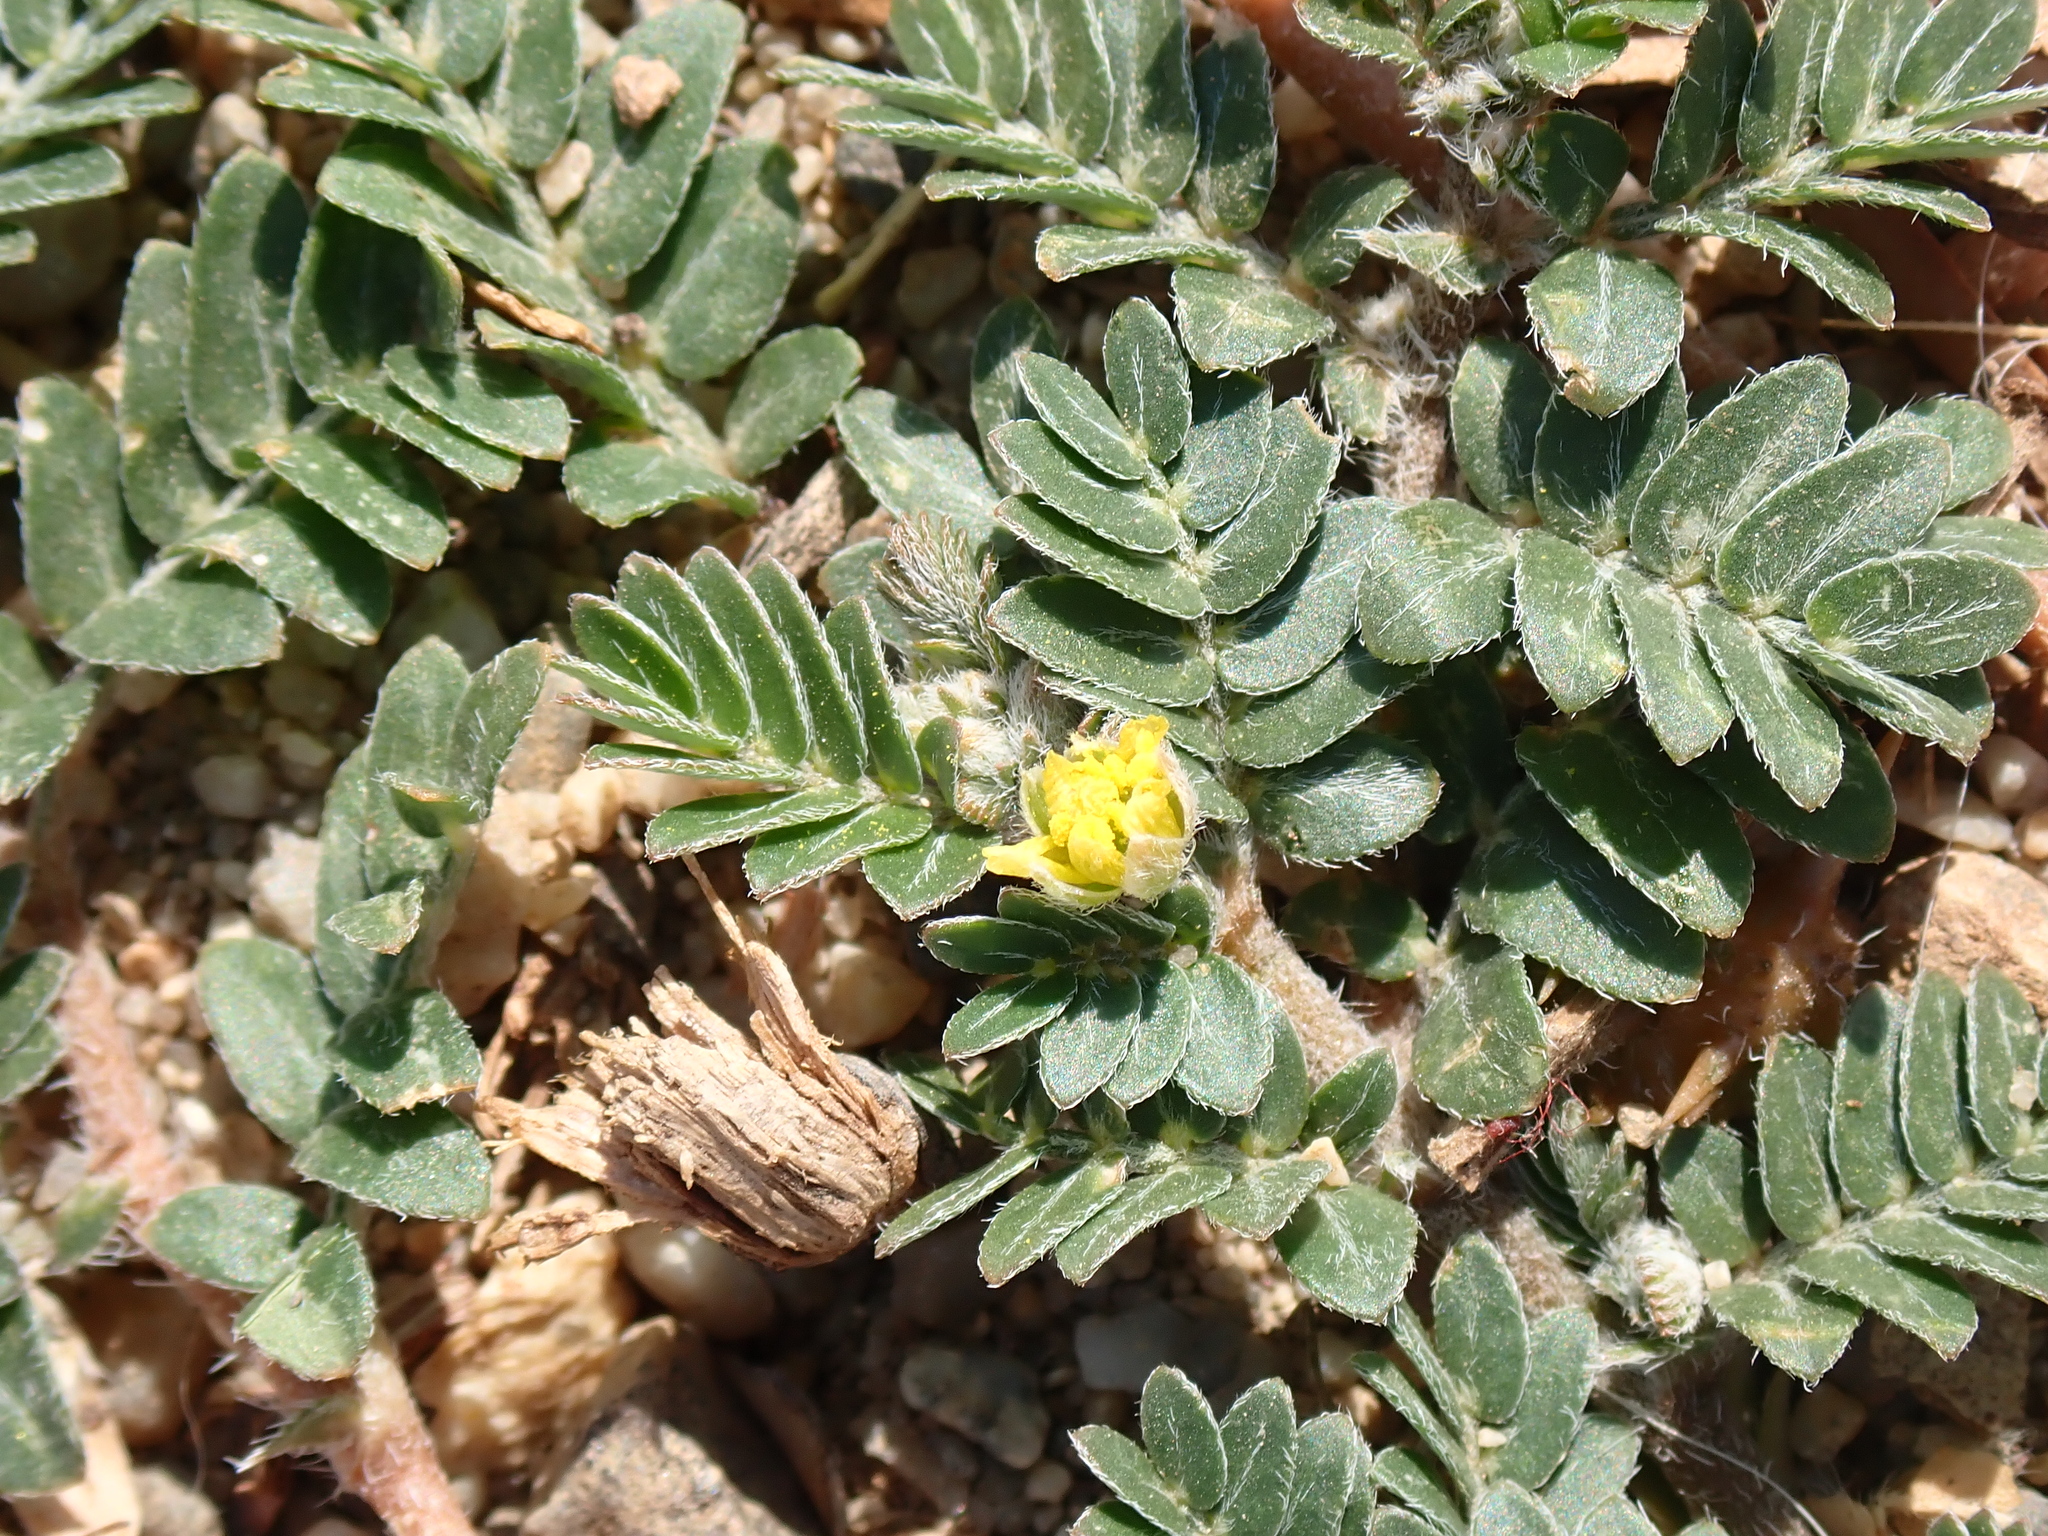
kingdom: Plantae
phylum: Tracheophyta
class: Magnoliopsida
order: Zygophyllales
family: Zygophyllaceae
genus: Tribulus
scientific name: Tribulus terrestris
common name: Puncturevine
